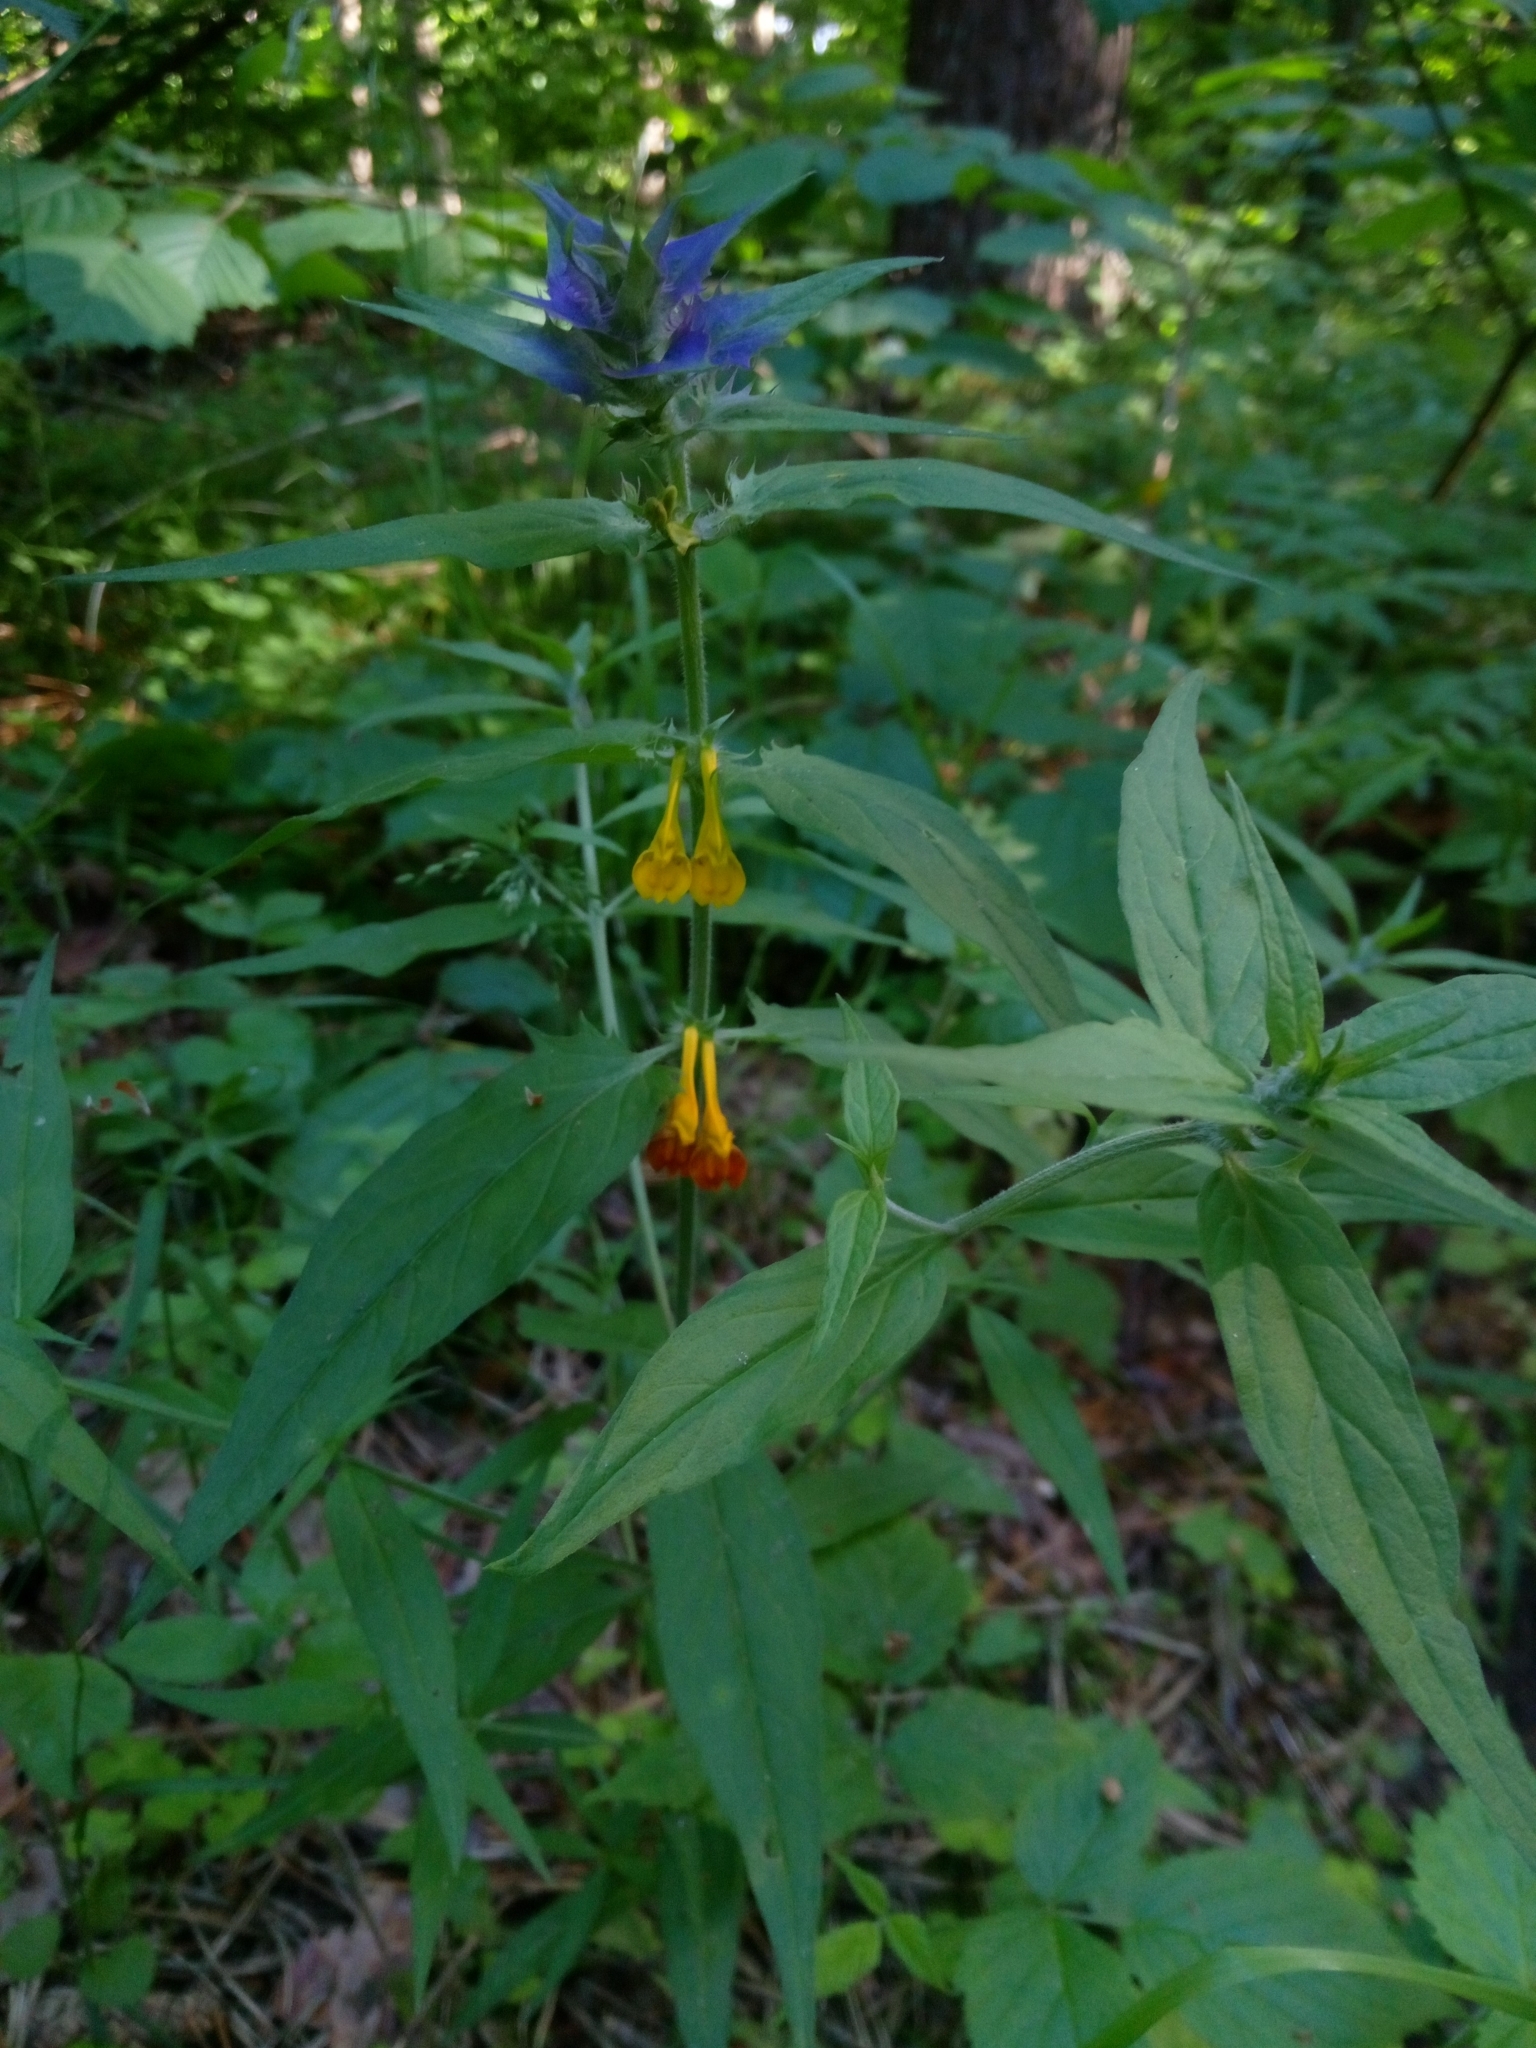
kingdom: Plantae
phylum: Tracheophyta
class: Magnoliopsida
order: Lamiales
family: Orobanchaceae
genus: Melampyrum
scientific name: Melampyrum nemorosum
